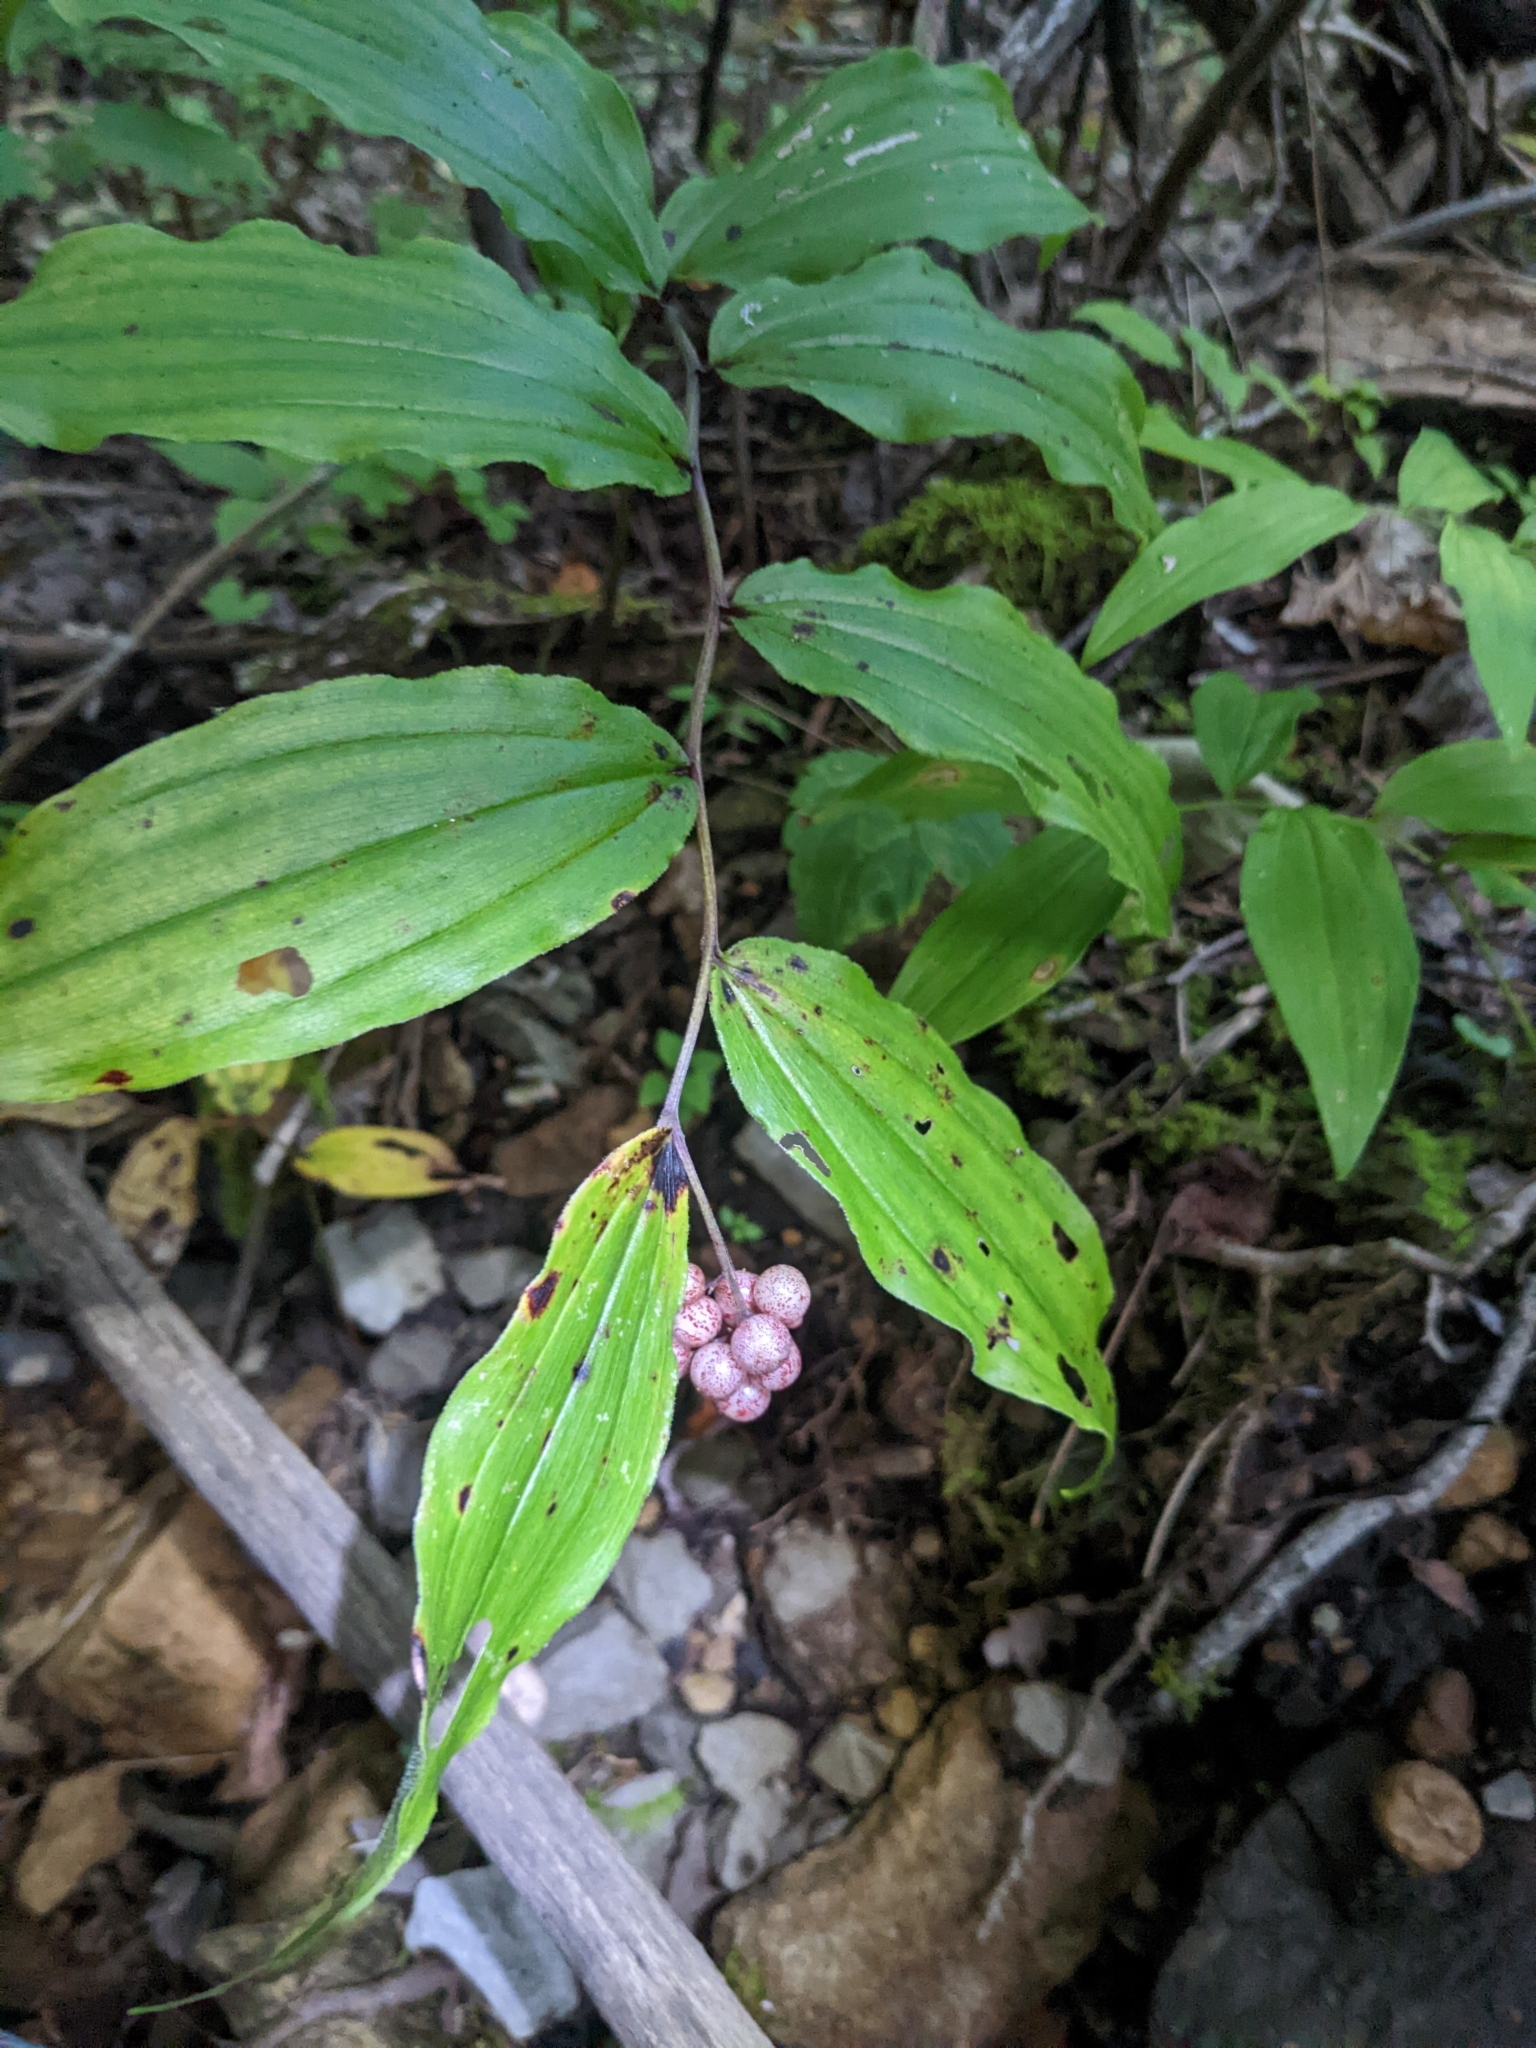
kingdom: Plantae
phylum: Tracheophyta
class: Liliopsida
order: Asparagales
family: Asparagaceae
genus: Maianthemum
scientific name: Maianthemum racemosum
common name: False spikenard
